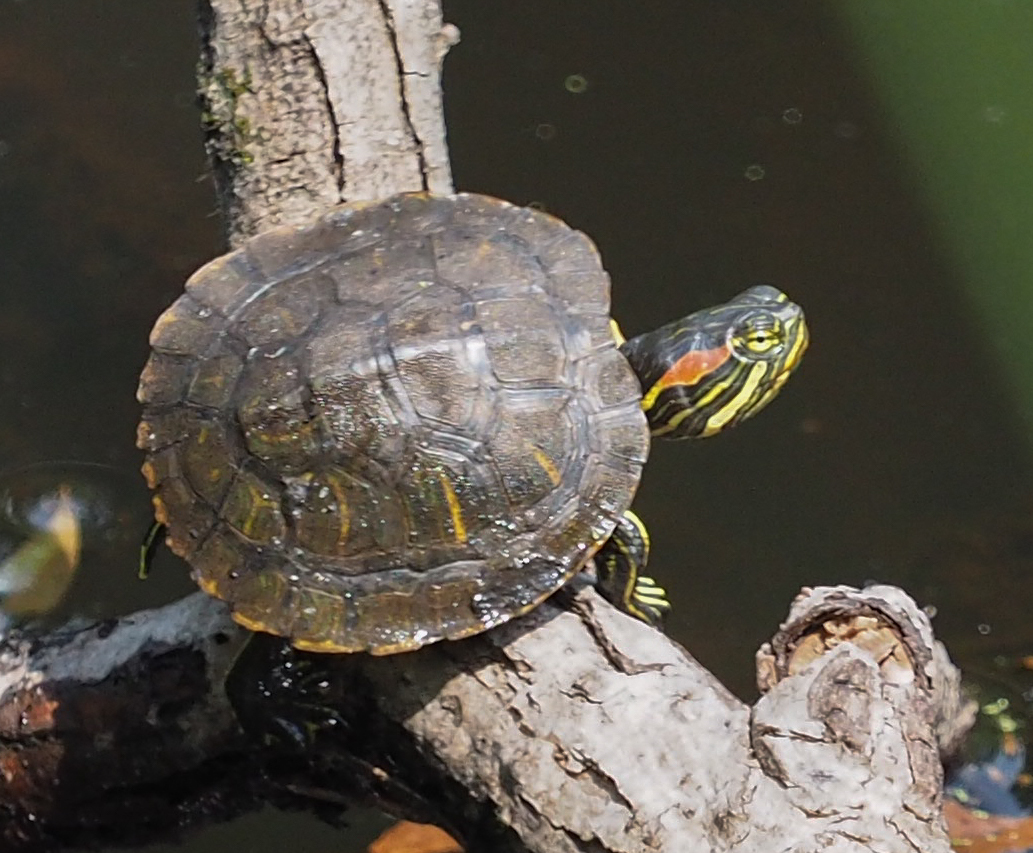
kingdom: Animalia
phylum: Chordata
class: Testudines
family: Emydidae
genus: Trachemys
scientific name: Trachemys scripta
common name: Slider
